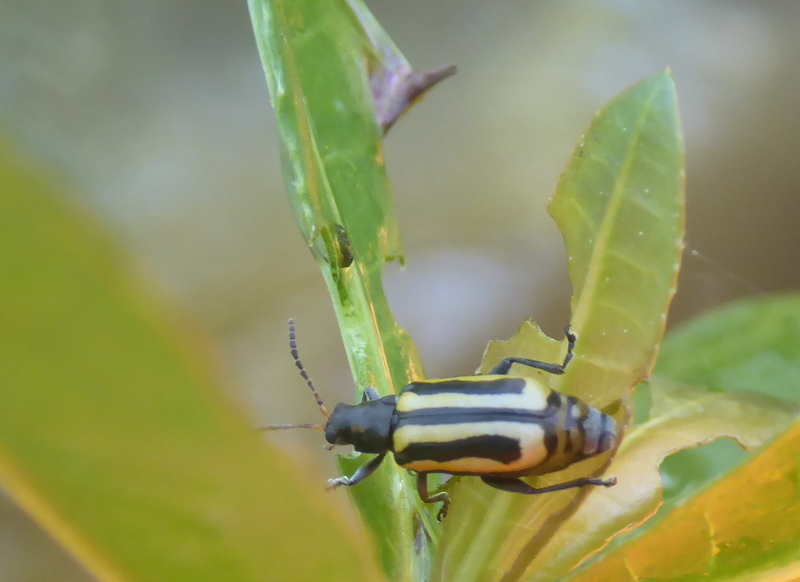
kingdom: Animalia
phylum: Arthropoda
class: Insecta
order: Coleoptera
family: Chrysomelidae
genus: Agasicles
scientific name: Agasicles hygrophila
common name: Alligatorweed flea beetle
